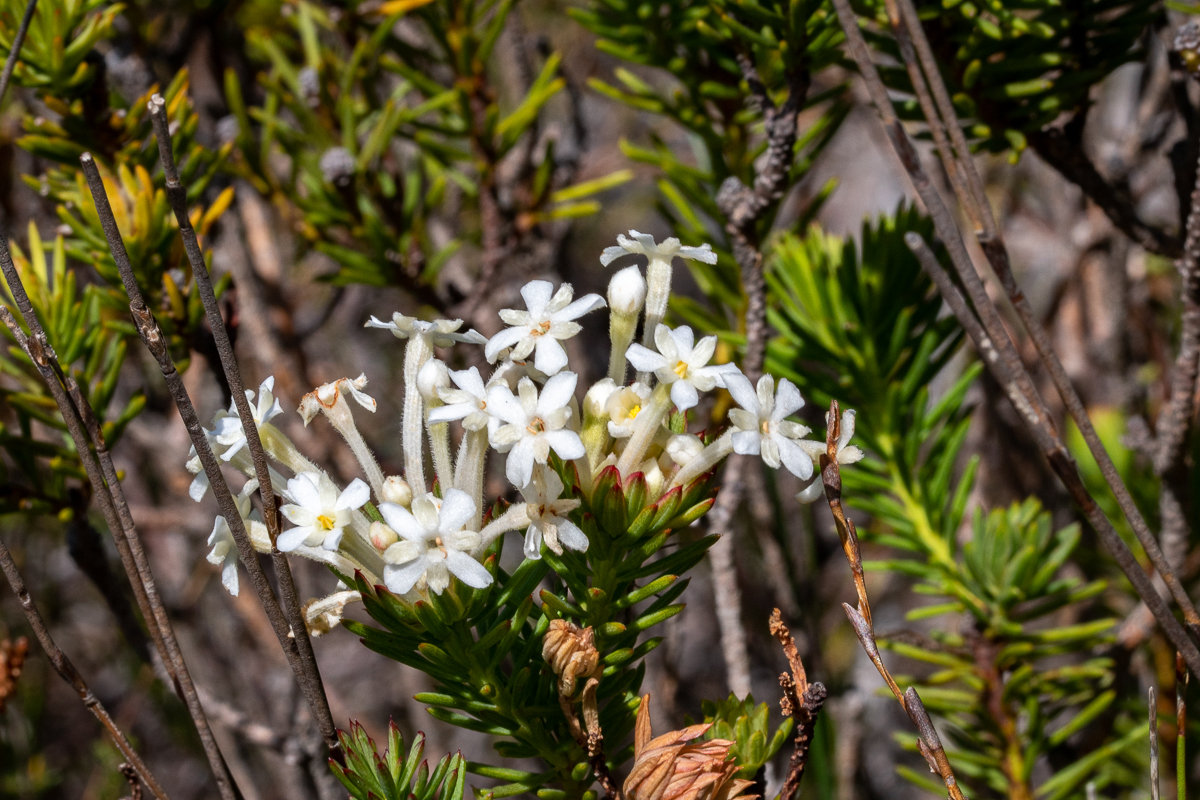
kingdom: Plantae
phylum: Tracheophyta
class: Magnoliopsida
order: Malvales
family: Thymelaeaceae
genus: Gnidia
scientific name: Gnidia pinifolia
